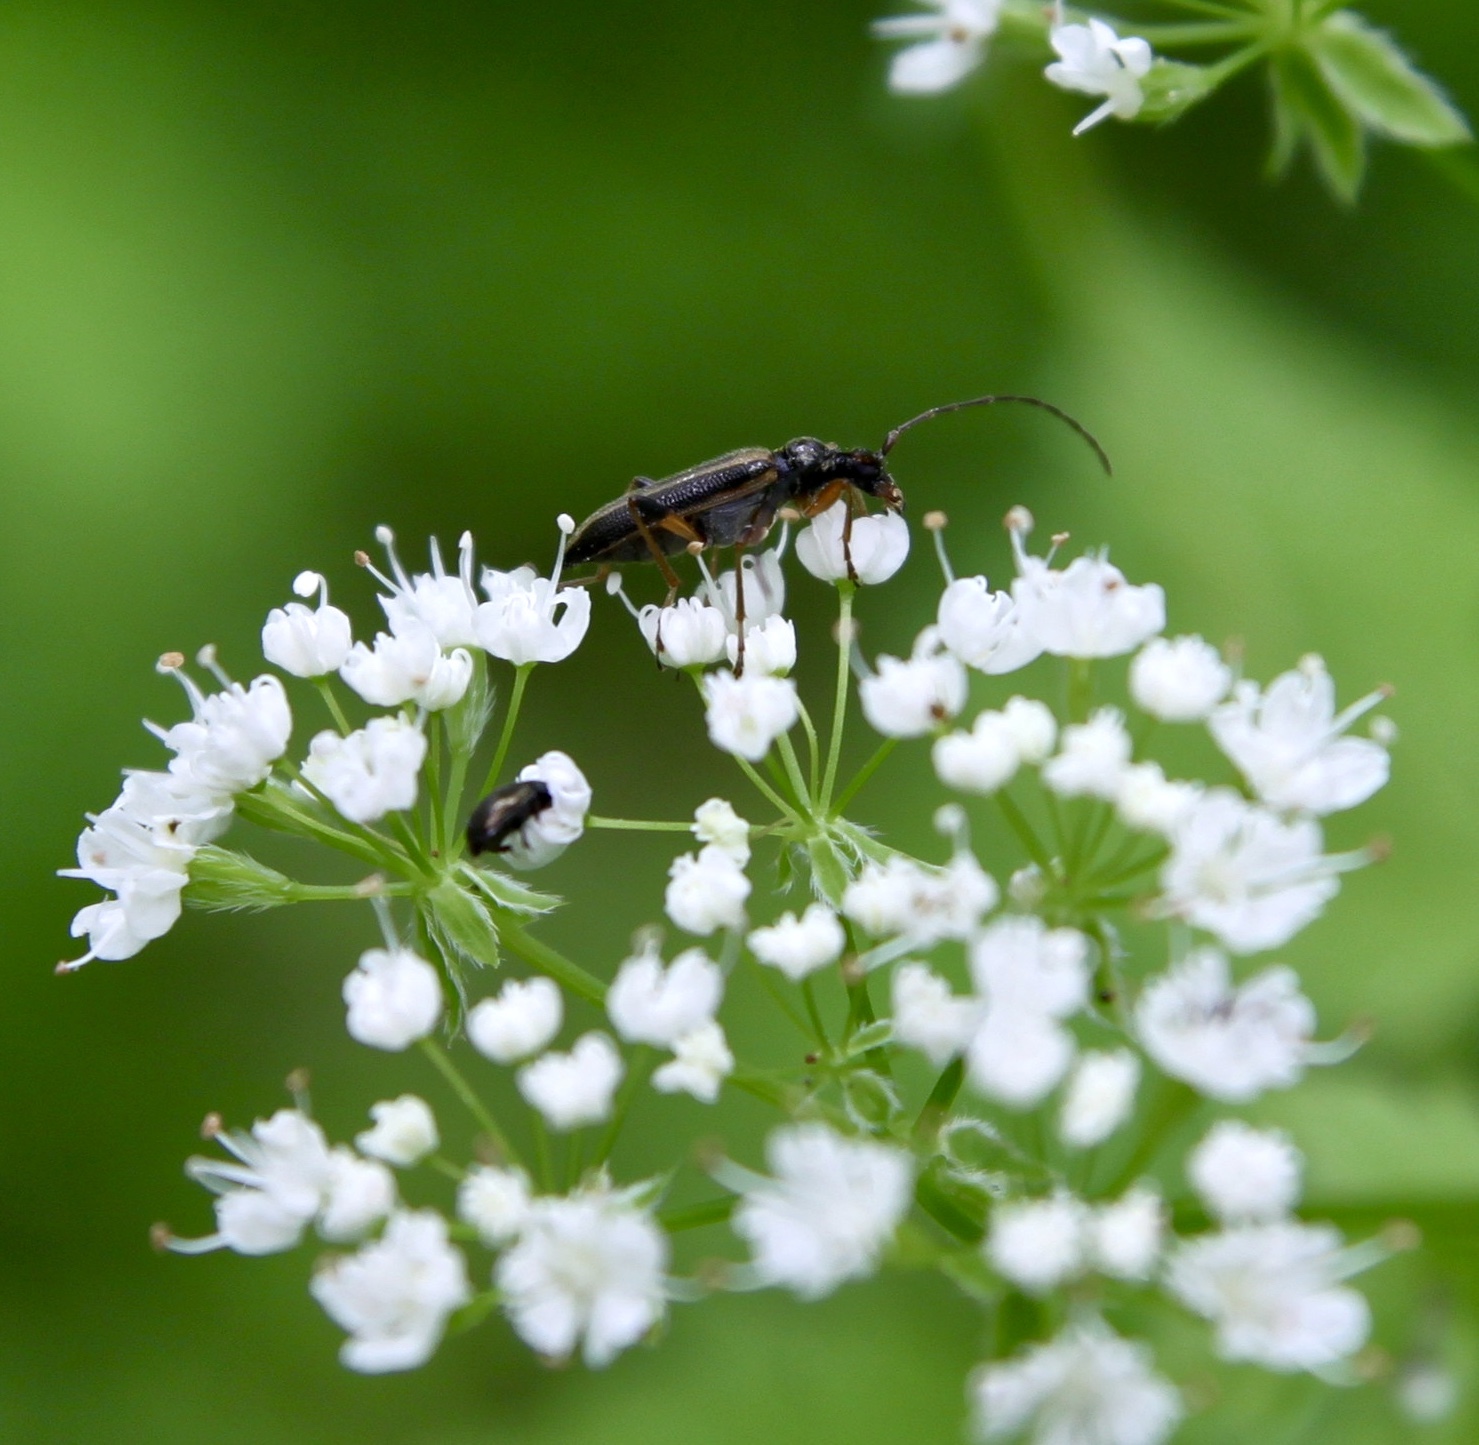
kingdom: Animalia
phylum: Arthropoda
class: Insecta
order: Coleoptera
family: Cerambycidae
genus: Analeptura
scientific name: Analeptura lineola
